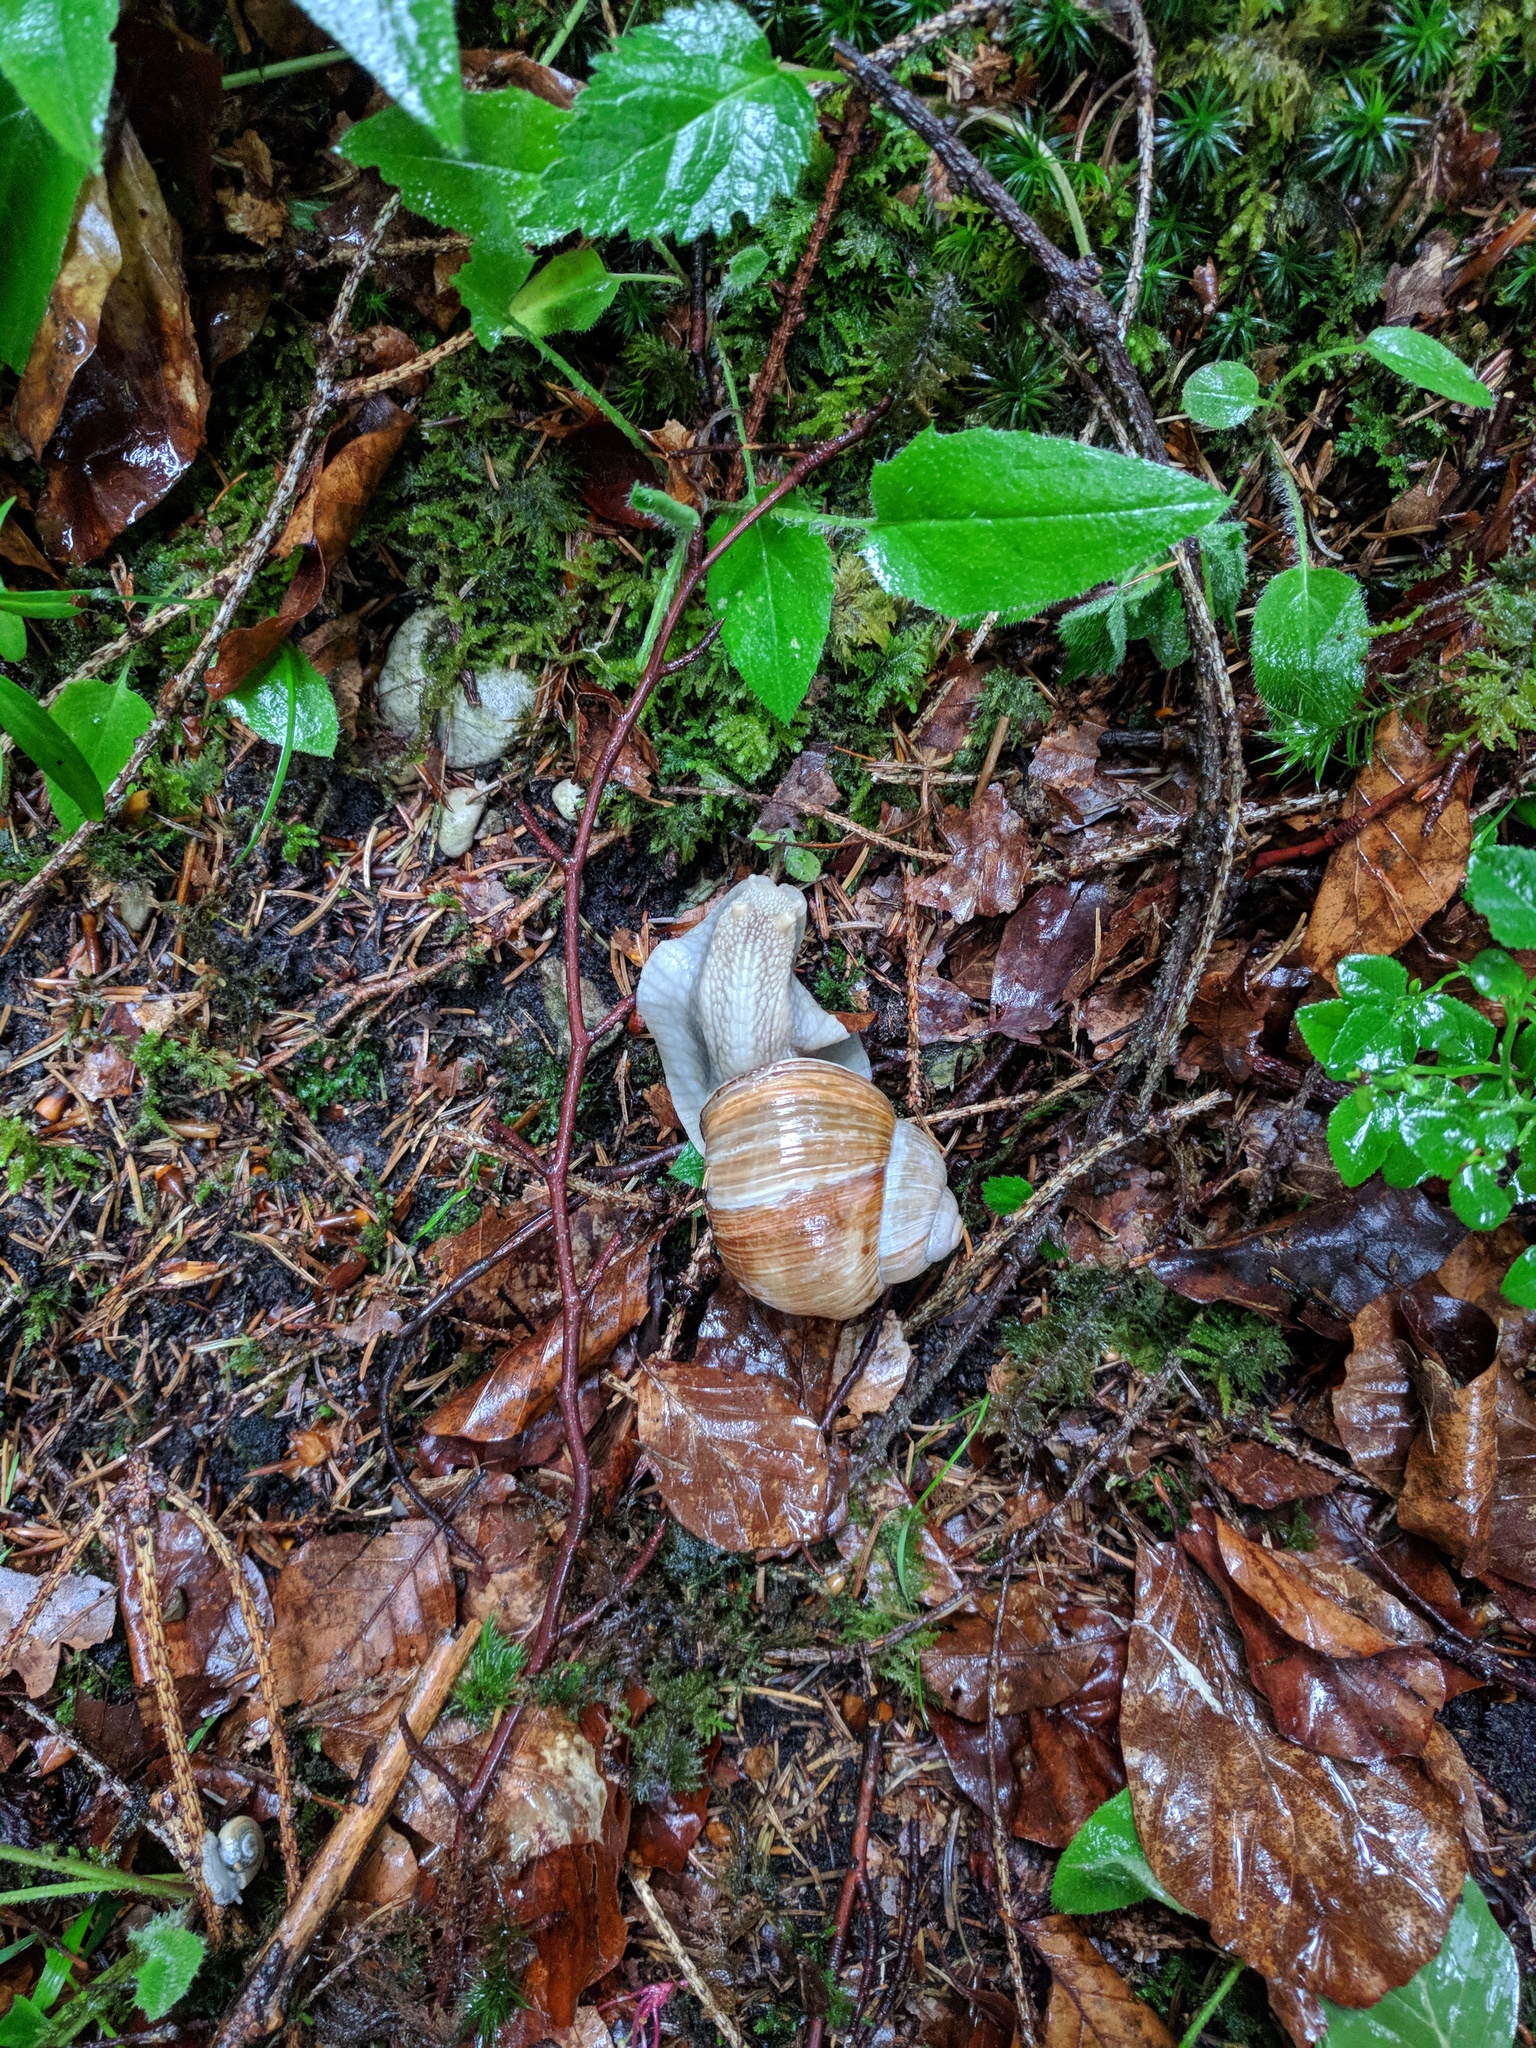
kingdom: Animalia
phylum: Mollusca
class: Gastropoda
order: Stylommatophora
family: Helicidae
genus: Helix
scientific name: Helix pomatia
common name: Roman snail
